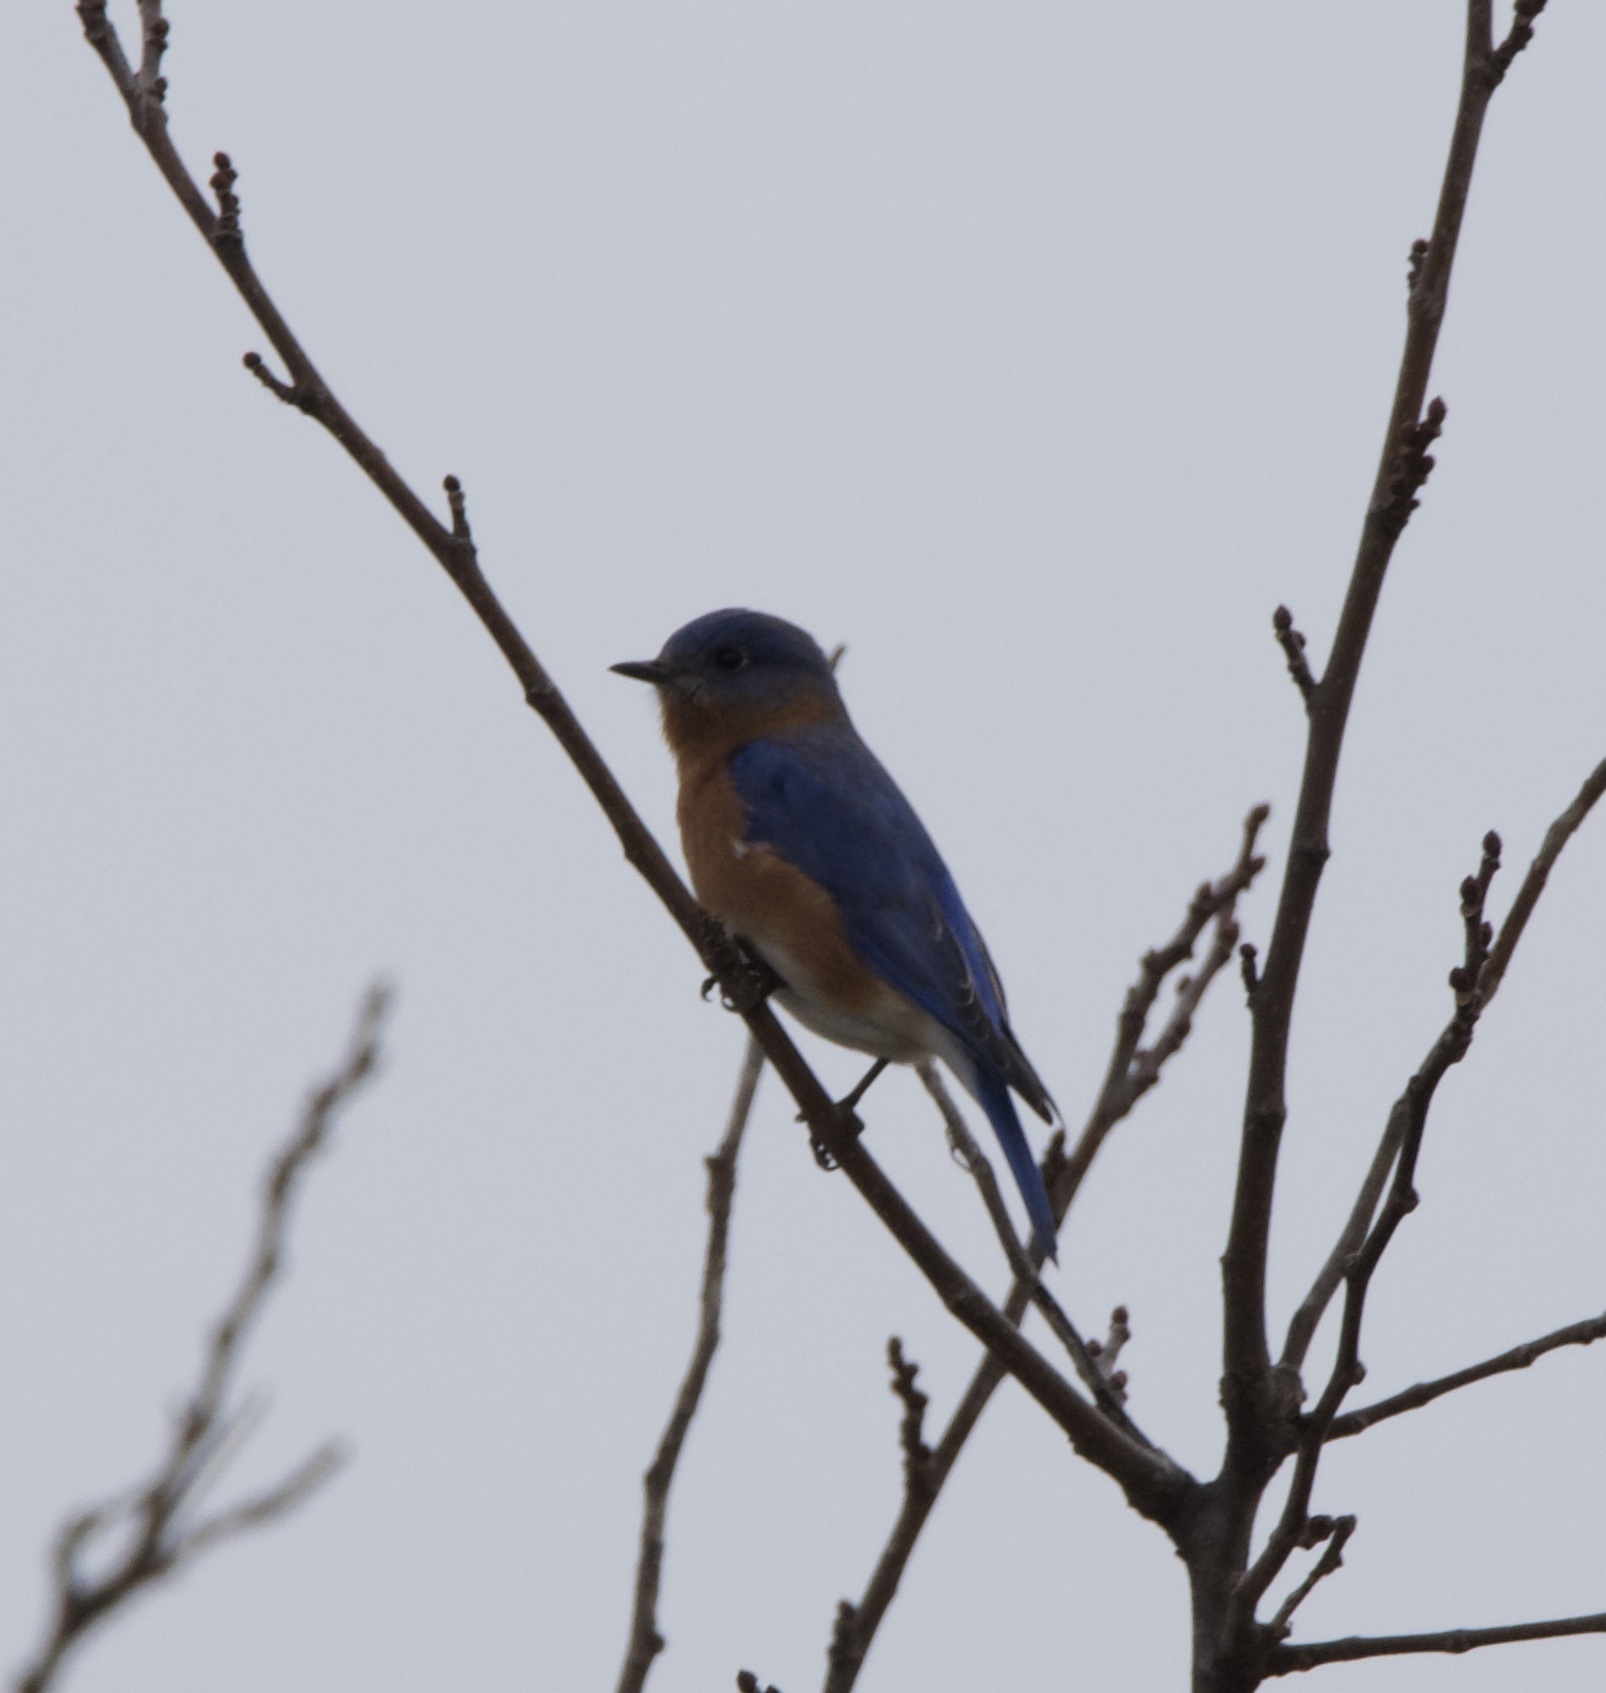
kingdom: Animalia
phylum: Chordata
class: Aves
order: Passeriformes
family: Turdidae
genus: Sialia
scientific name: Sialia sialis
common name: Eastern bluebird
